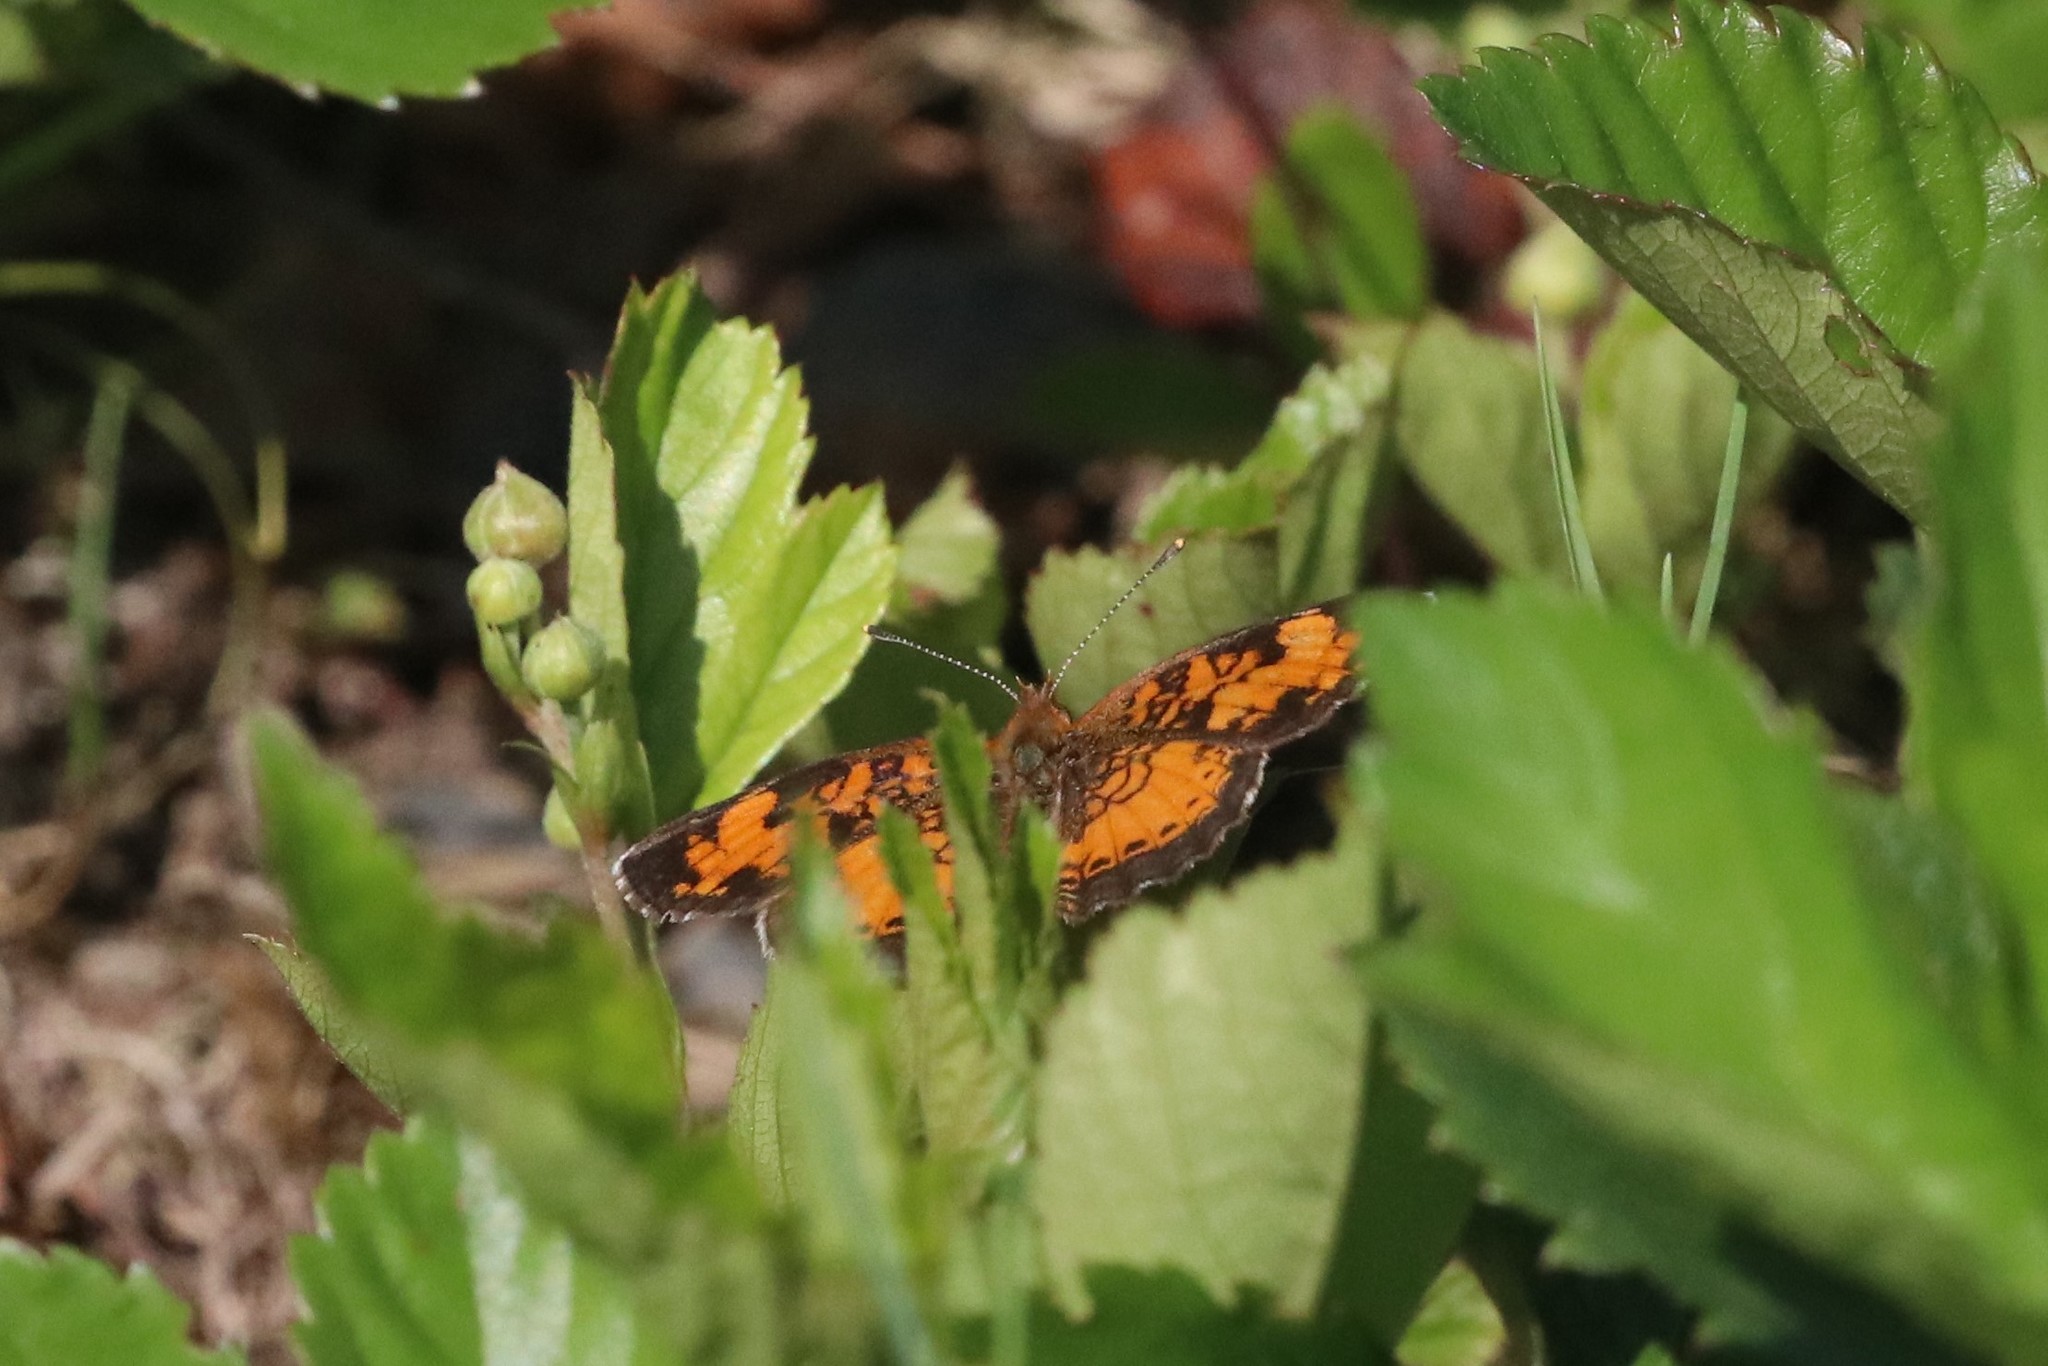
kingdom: Animalia
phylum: Arthropoda
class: Insecta
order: Lepidoptera
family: Nymphalidae
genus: Phyciodes
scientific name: Phyciodes tharos
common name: Pearl crescent
